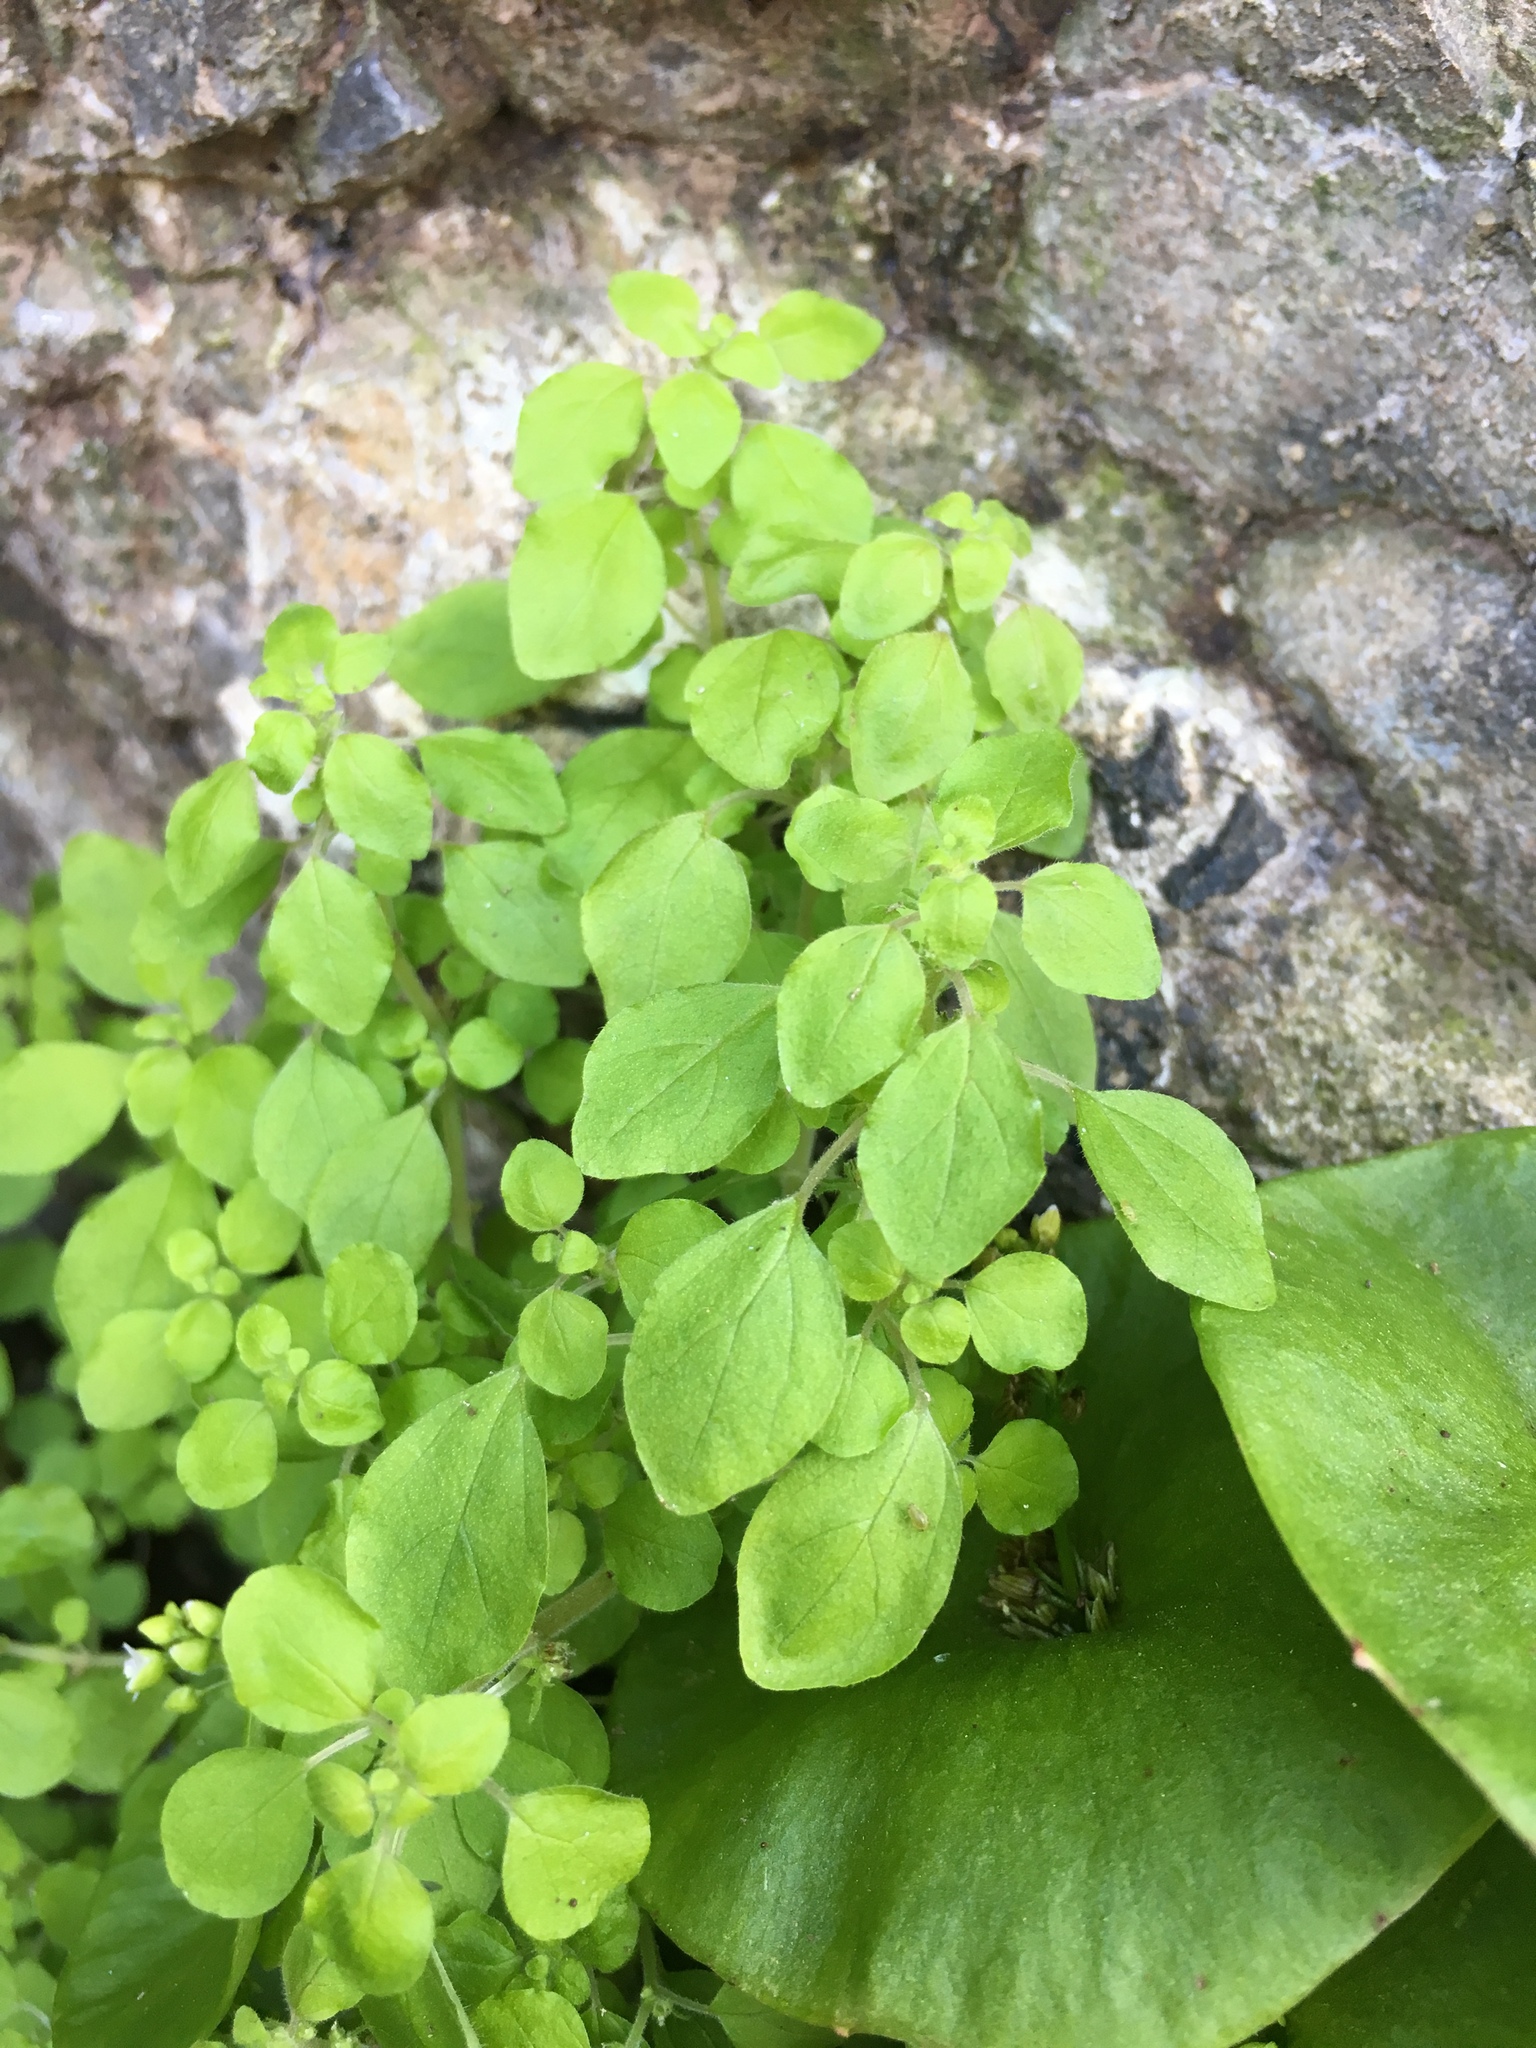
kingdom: Plantae
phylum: Tracheophyta
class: Magnoliopsida
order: Rosales
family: Urticaceae
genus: Parietaria
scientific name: Parietaria hespera
